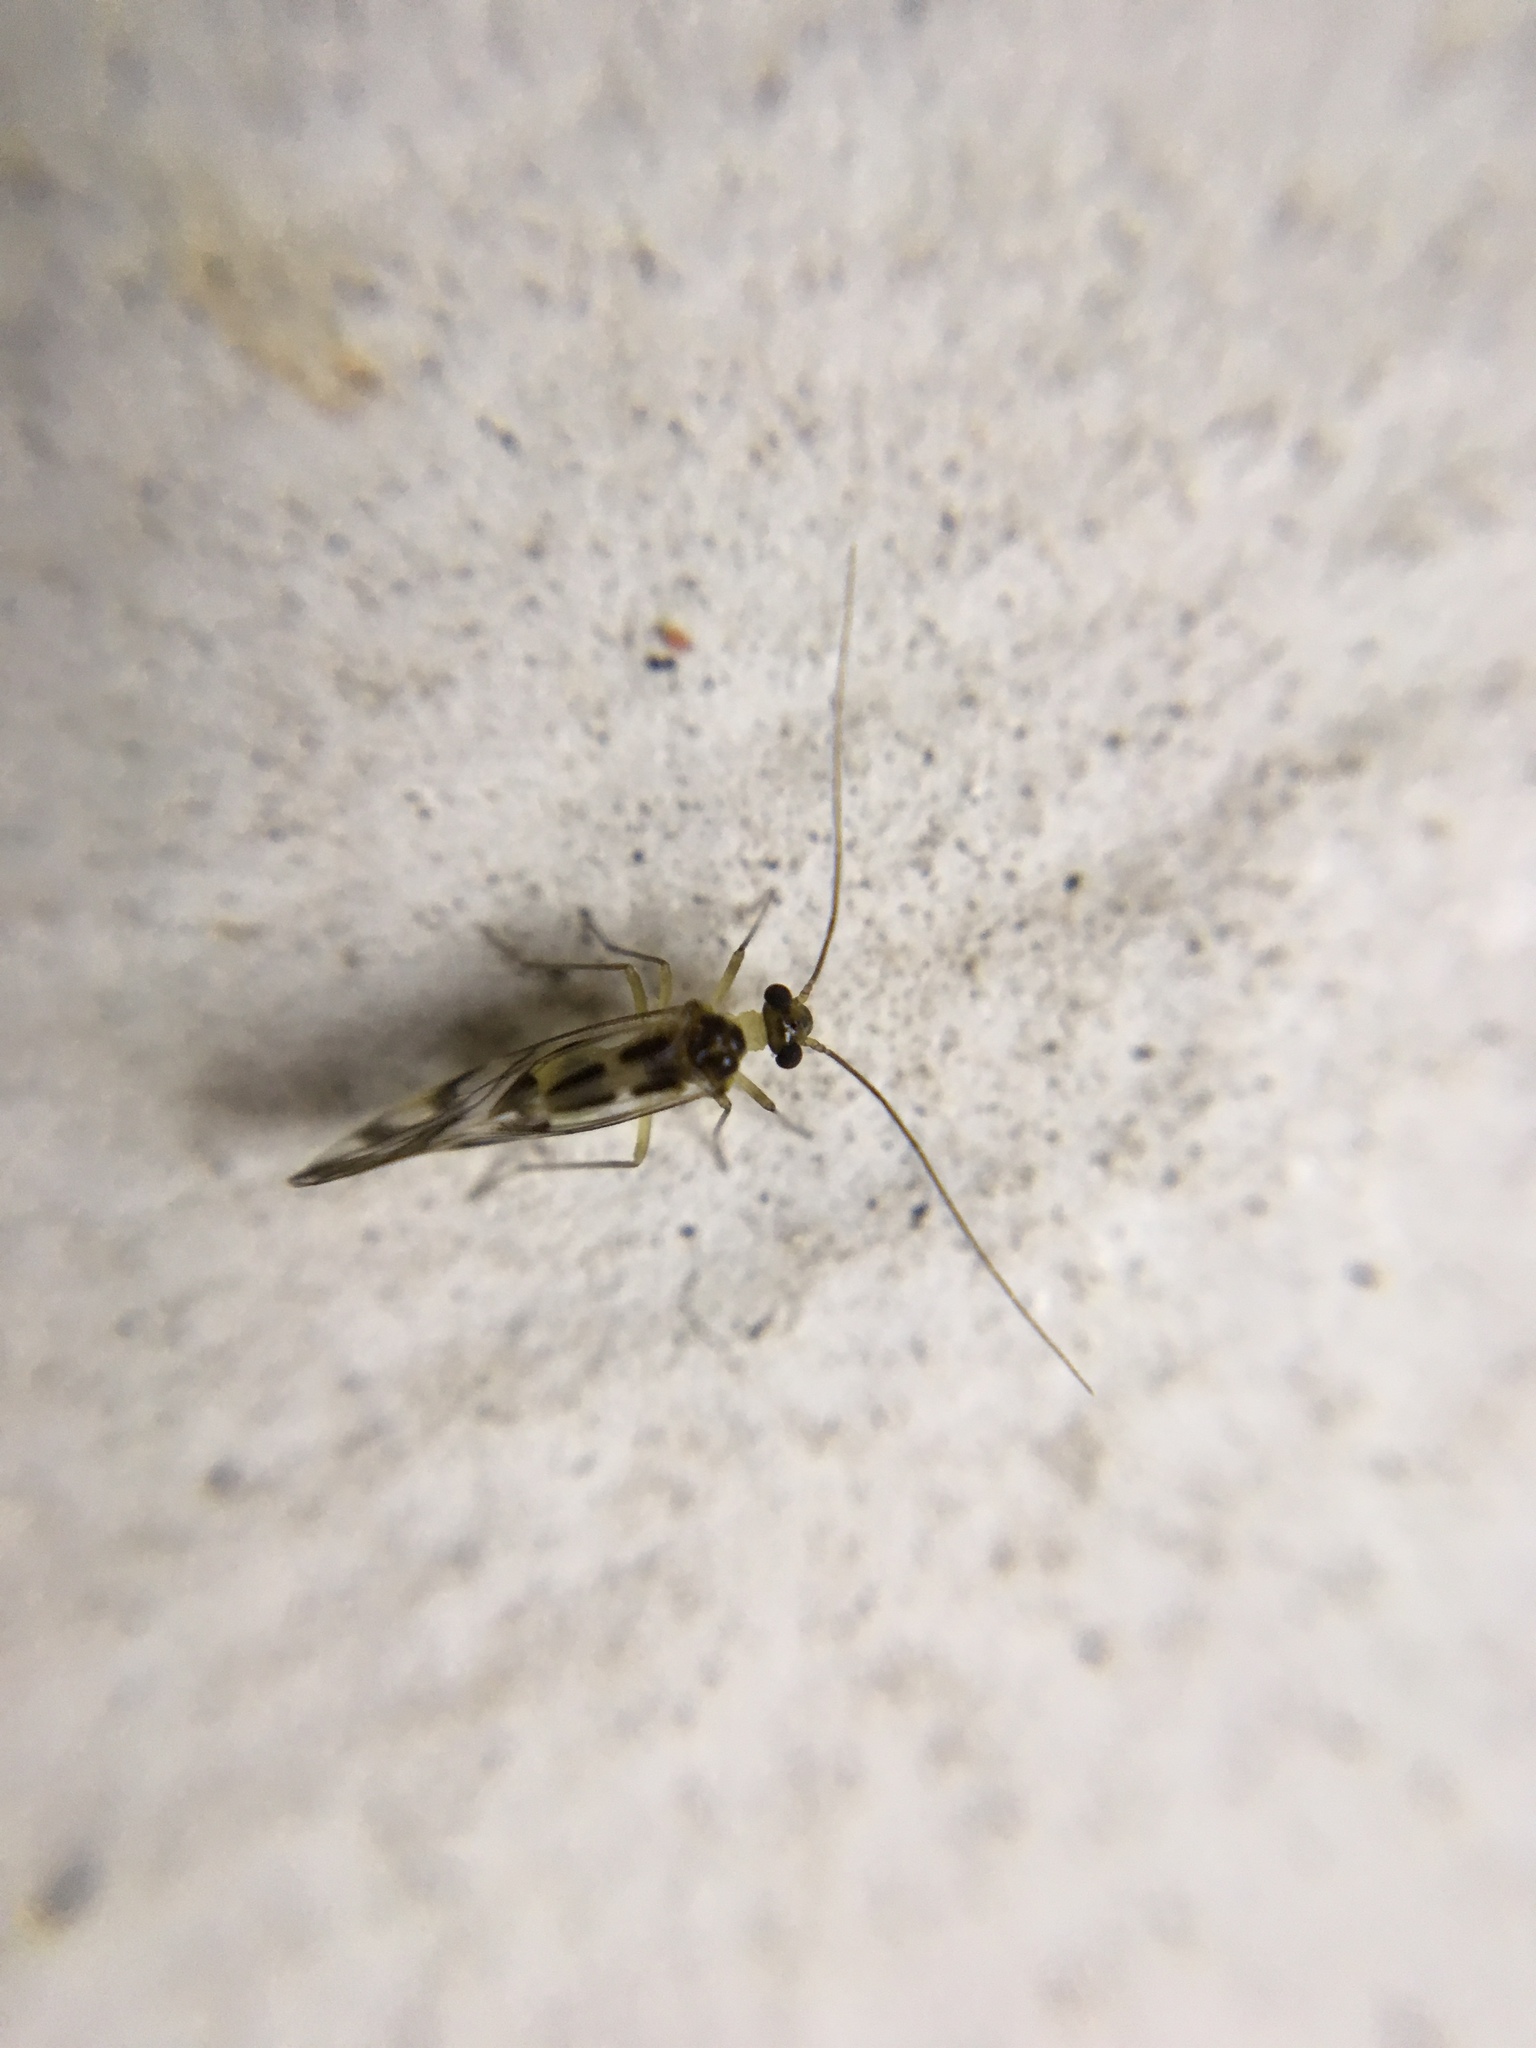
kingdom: Animalia
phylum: Arthropoda
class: Insecta
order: Psocodea
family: Stenopsocidae
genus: Graphopsocus
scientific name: Graphopsocus cruciatus
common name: Lizard bark louse
